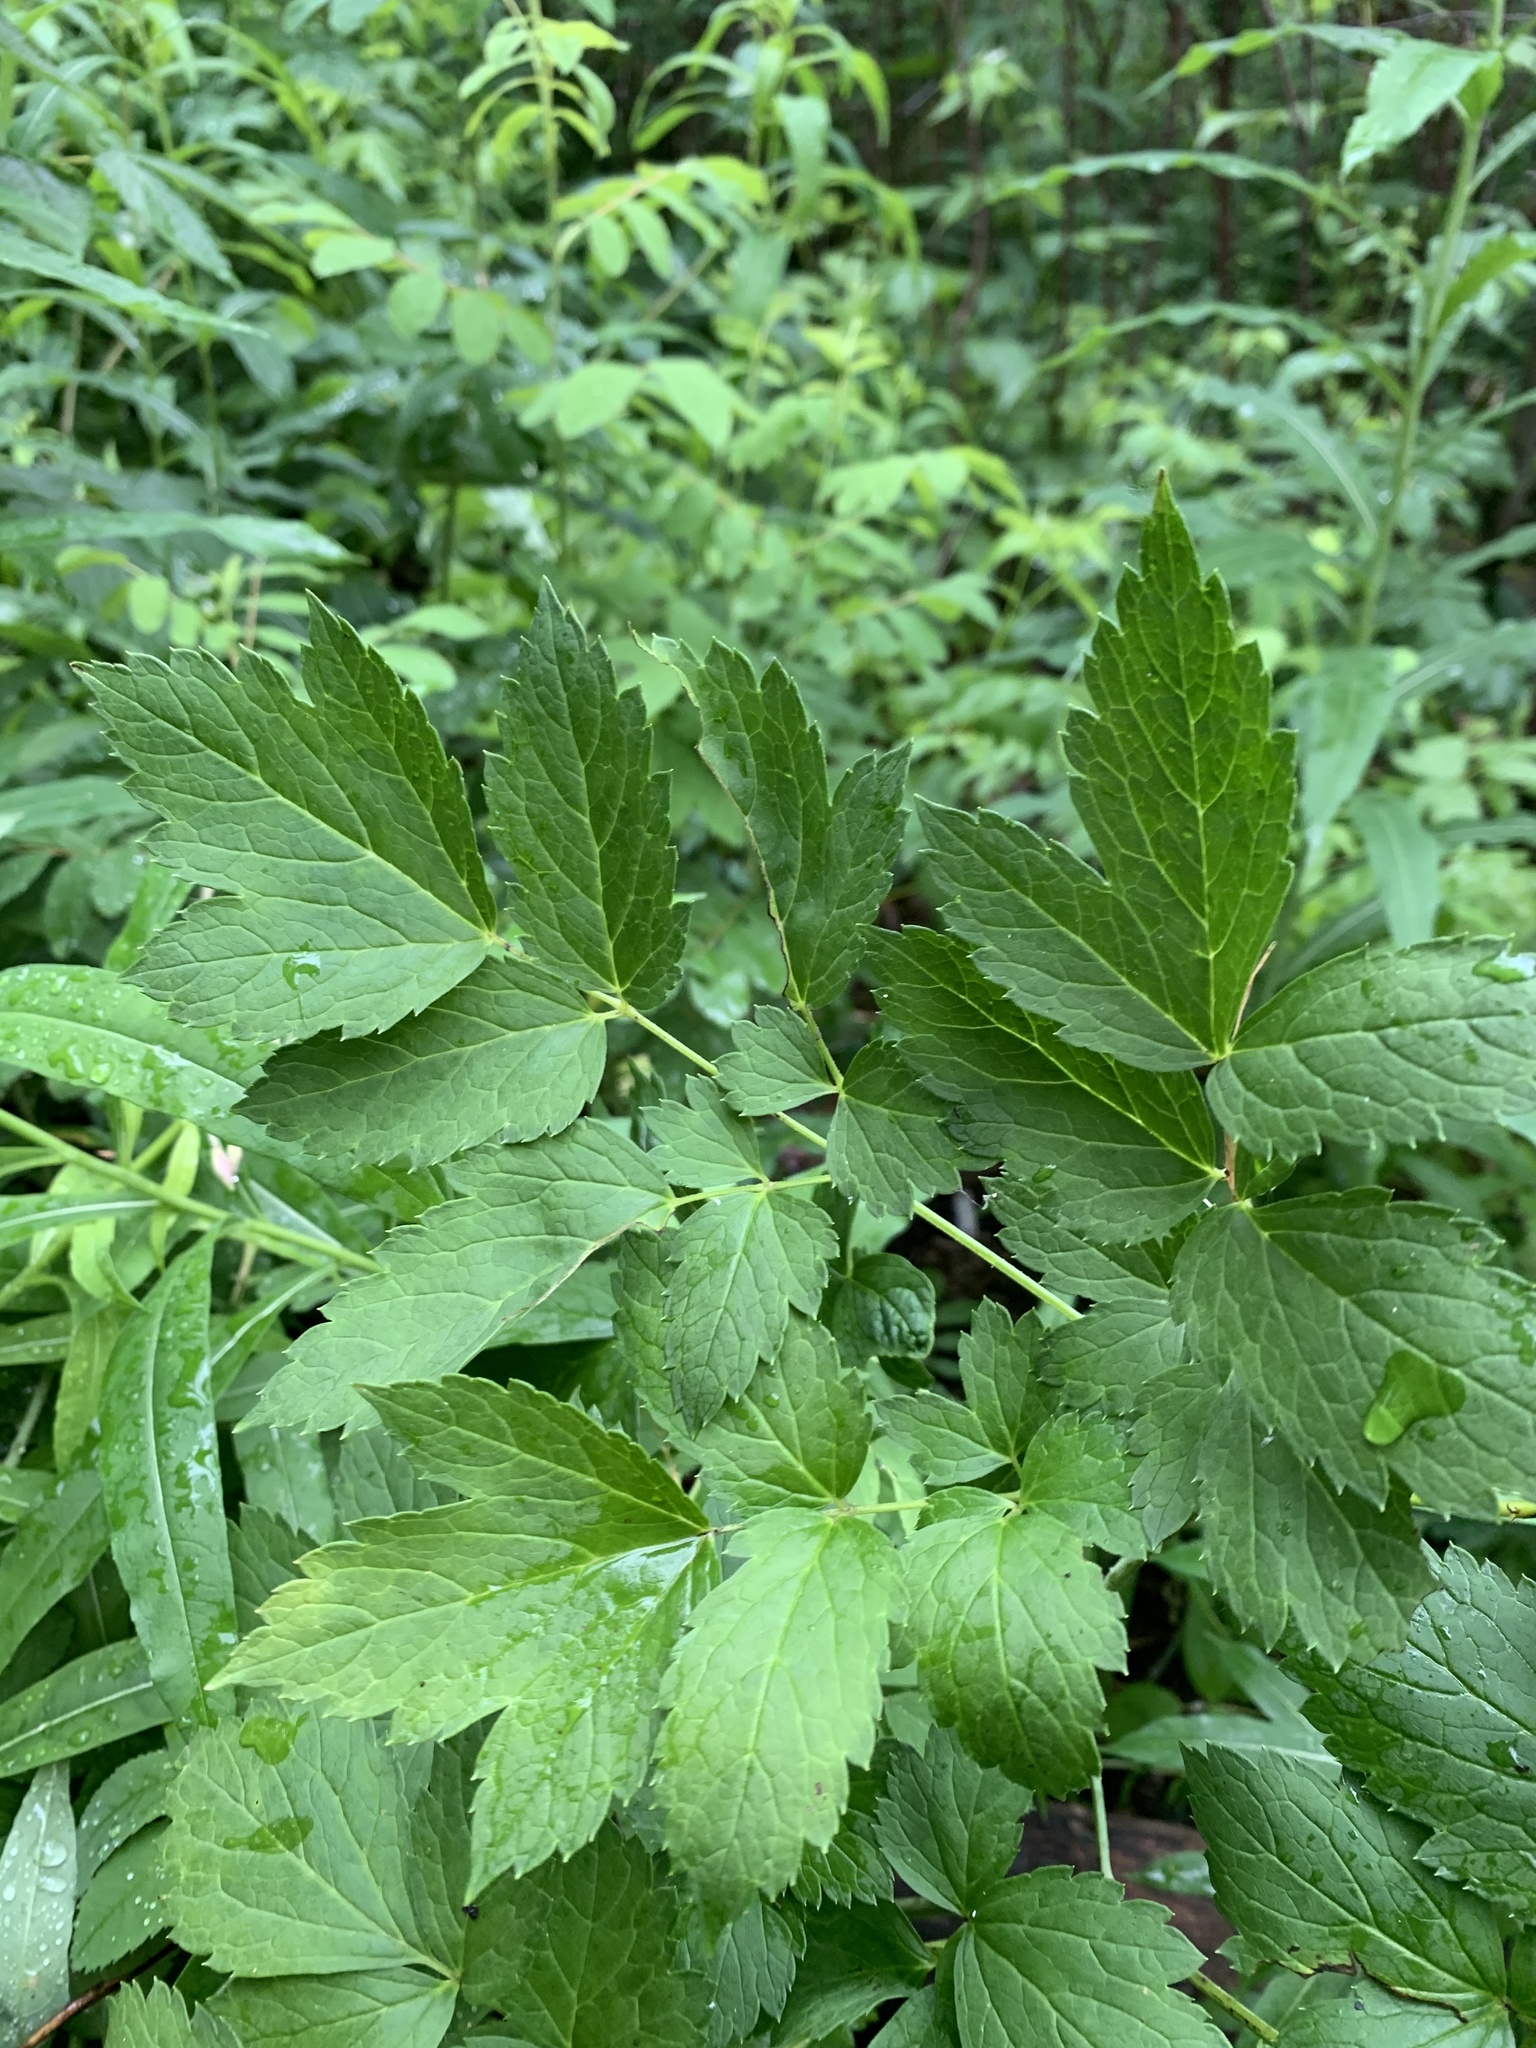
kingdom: Plantae
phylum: Tracheophyta
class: Magnoliopsida
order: Ranunculales
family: Ranunculaceae
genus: Actaea
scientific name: Actaea rubra
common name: Red baneberry
